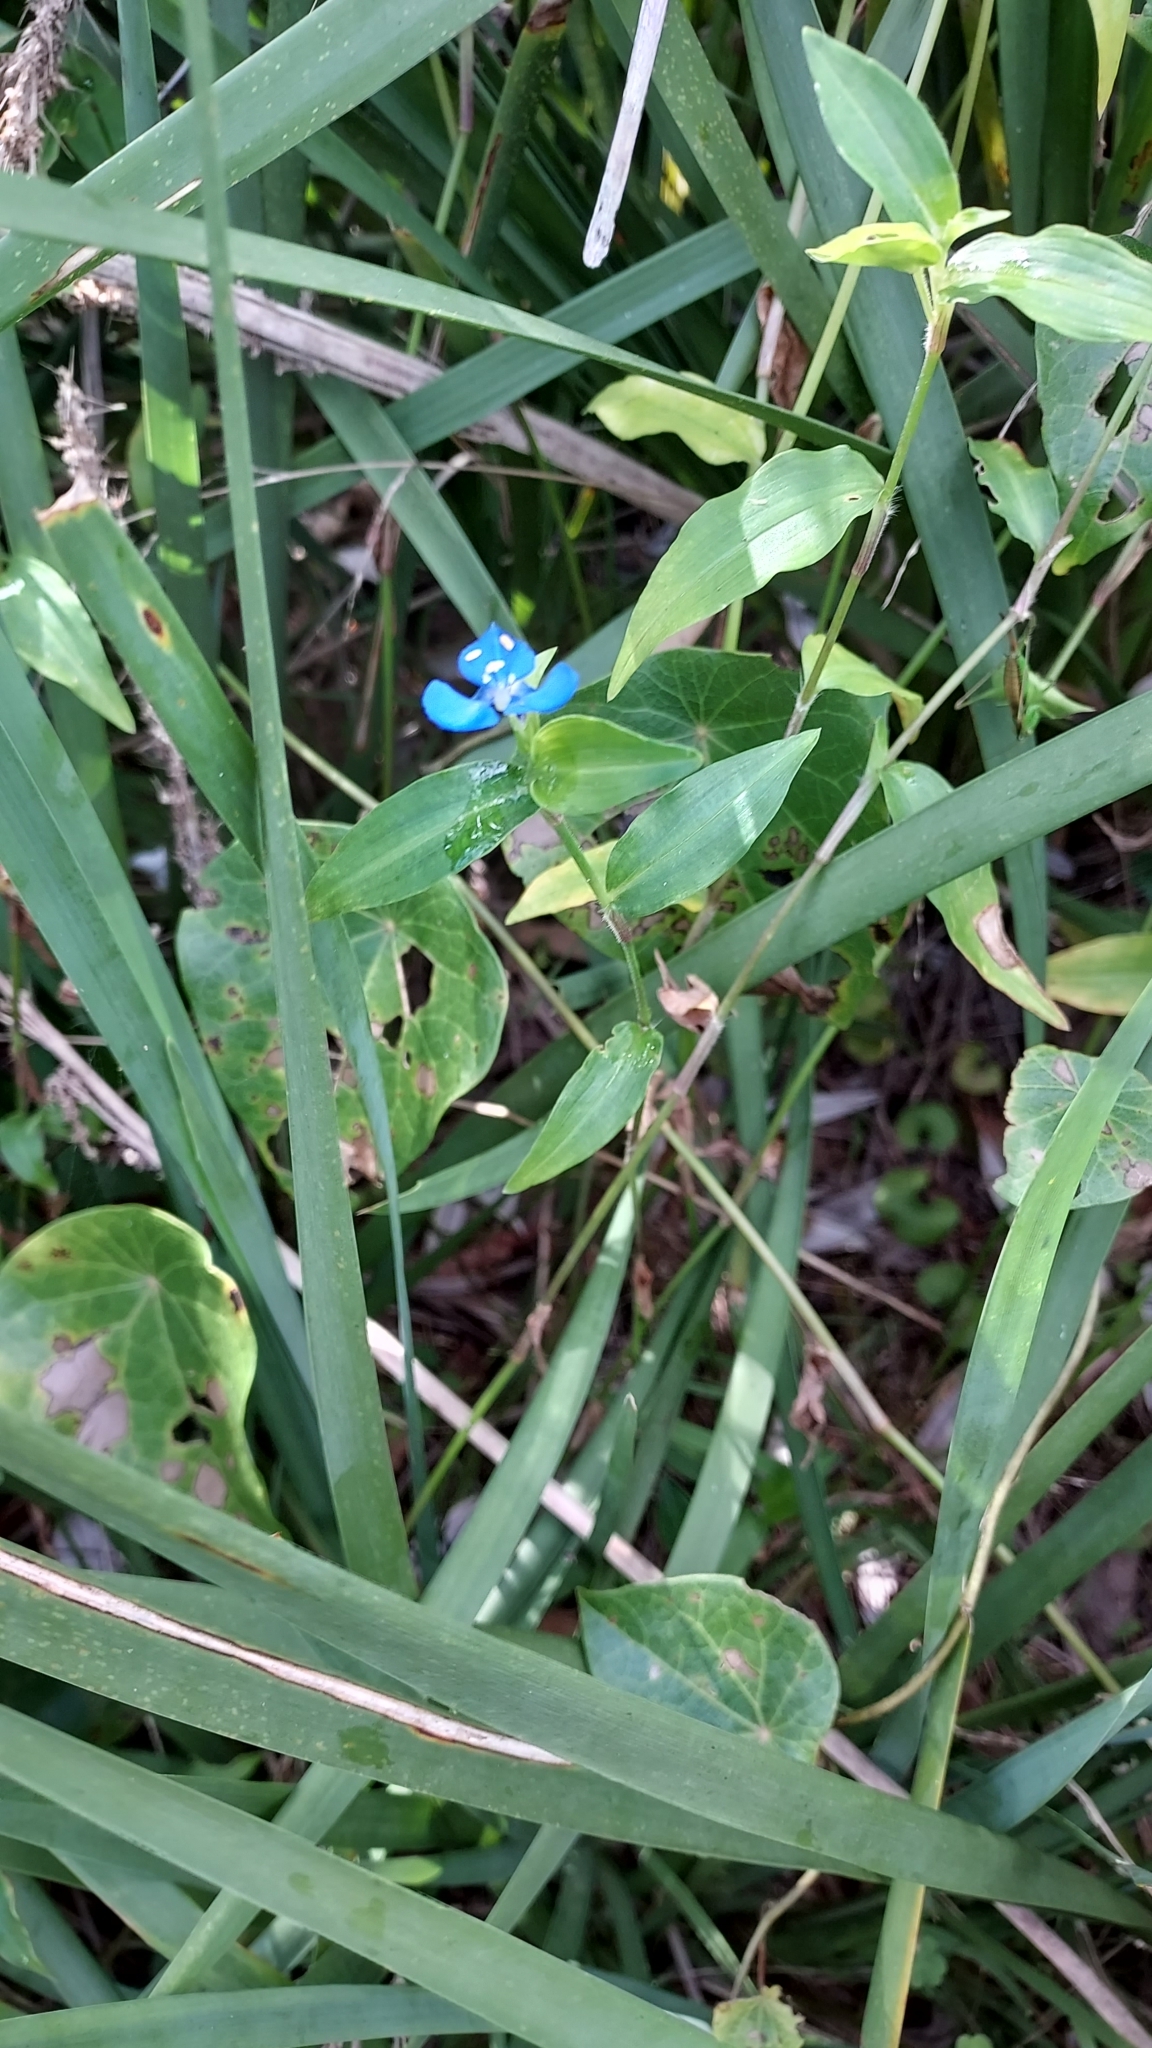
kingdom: Plantae
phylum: Tracheophyta
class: Liliopsida
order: Commelinales
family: Commelinaceae
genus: Commelina
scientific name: Commelina cyanea
